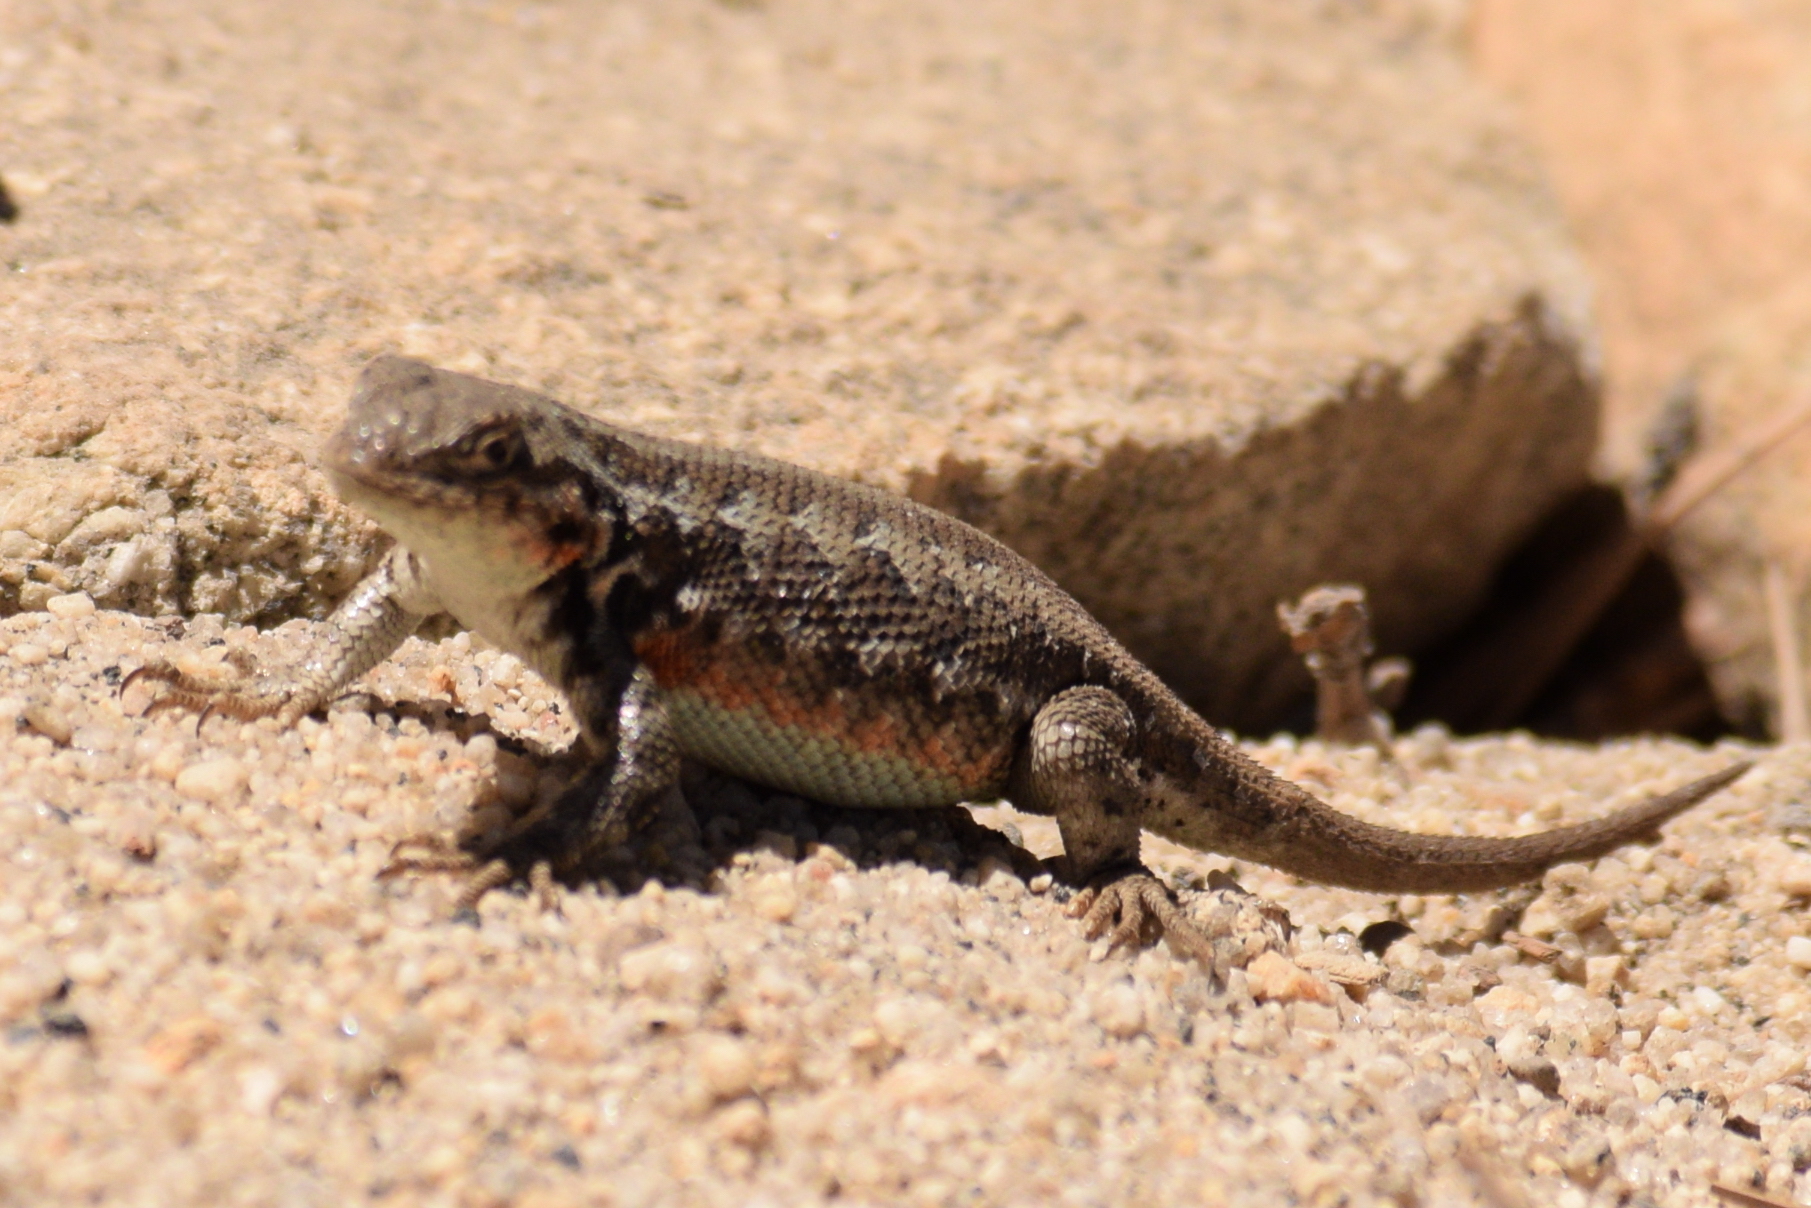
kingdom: Animalia
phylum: Chordata
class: Squamata
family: Phrynosomatidae
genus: Sceloporus
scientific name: Sceloporus graciosus
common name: Sagebrush lizard
